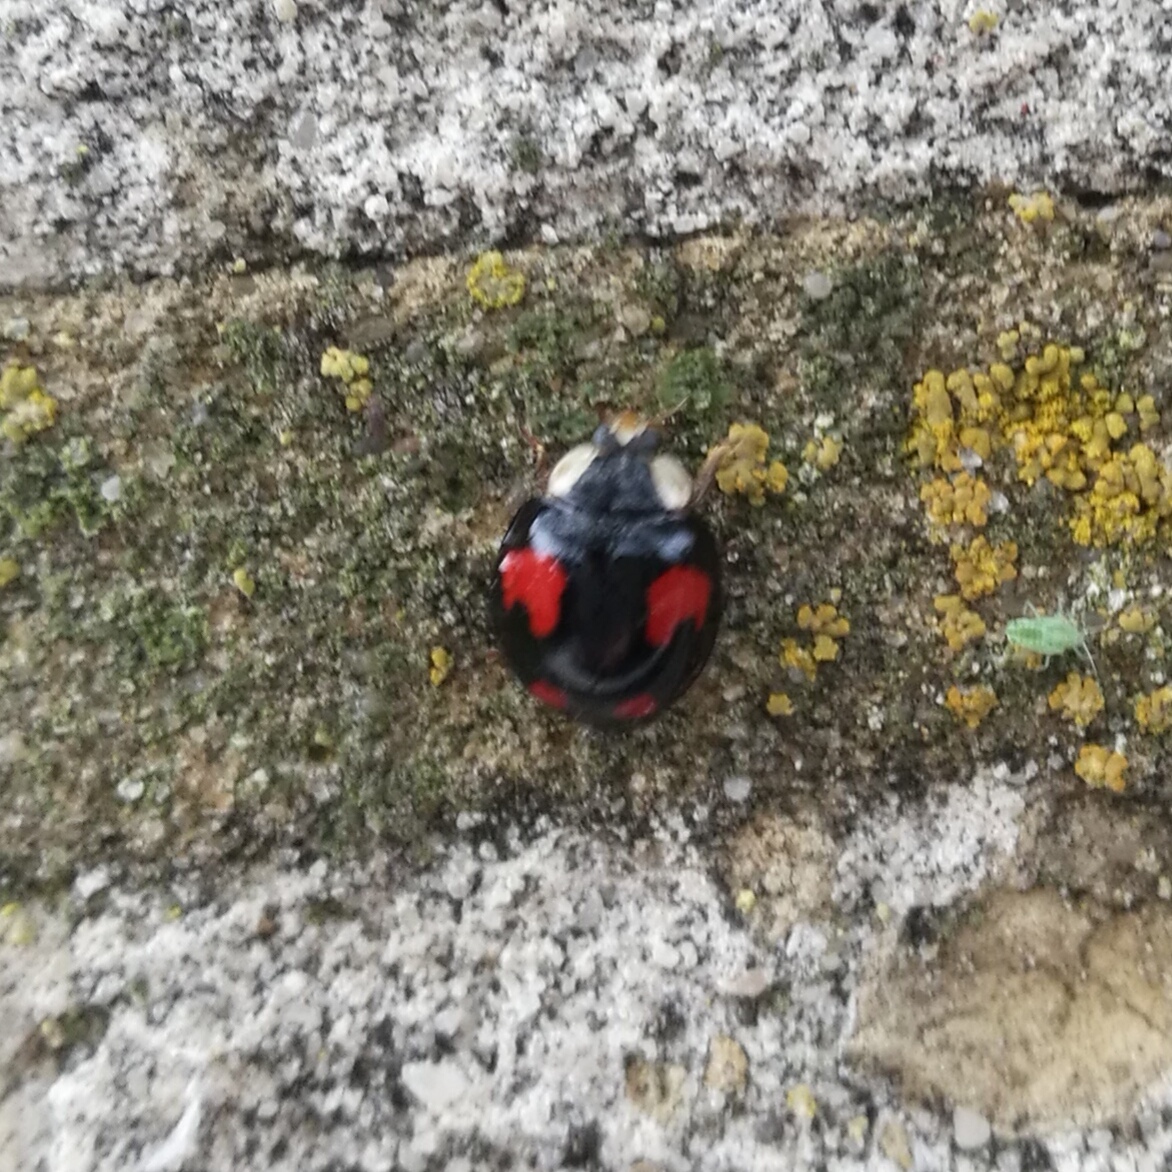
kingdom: Animalia
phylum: Arthropoda
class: Insecta
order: Coleoptera
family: Coccinellidae
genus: Harmonia
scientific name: Harmonia axyridis
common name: Harlequin ladybird
